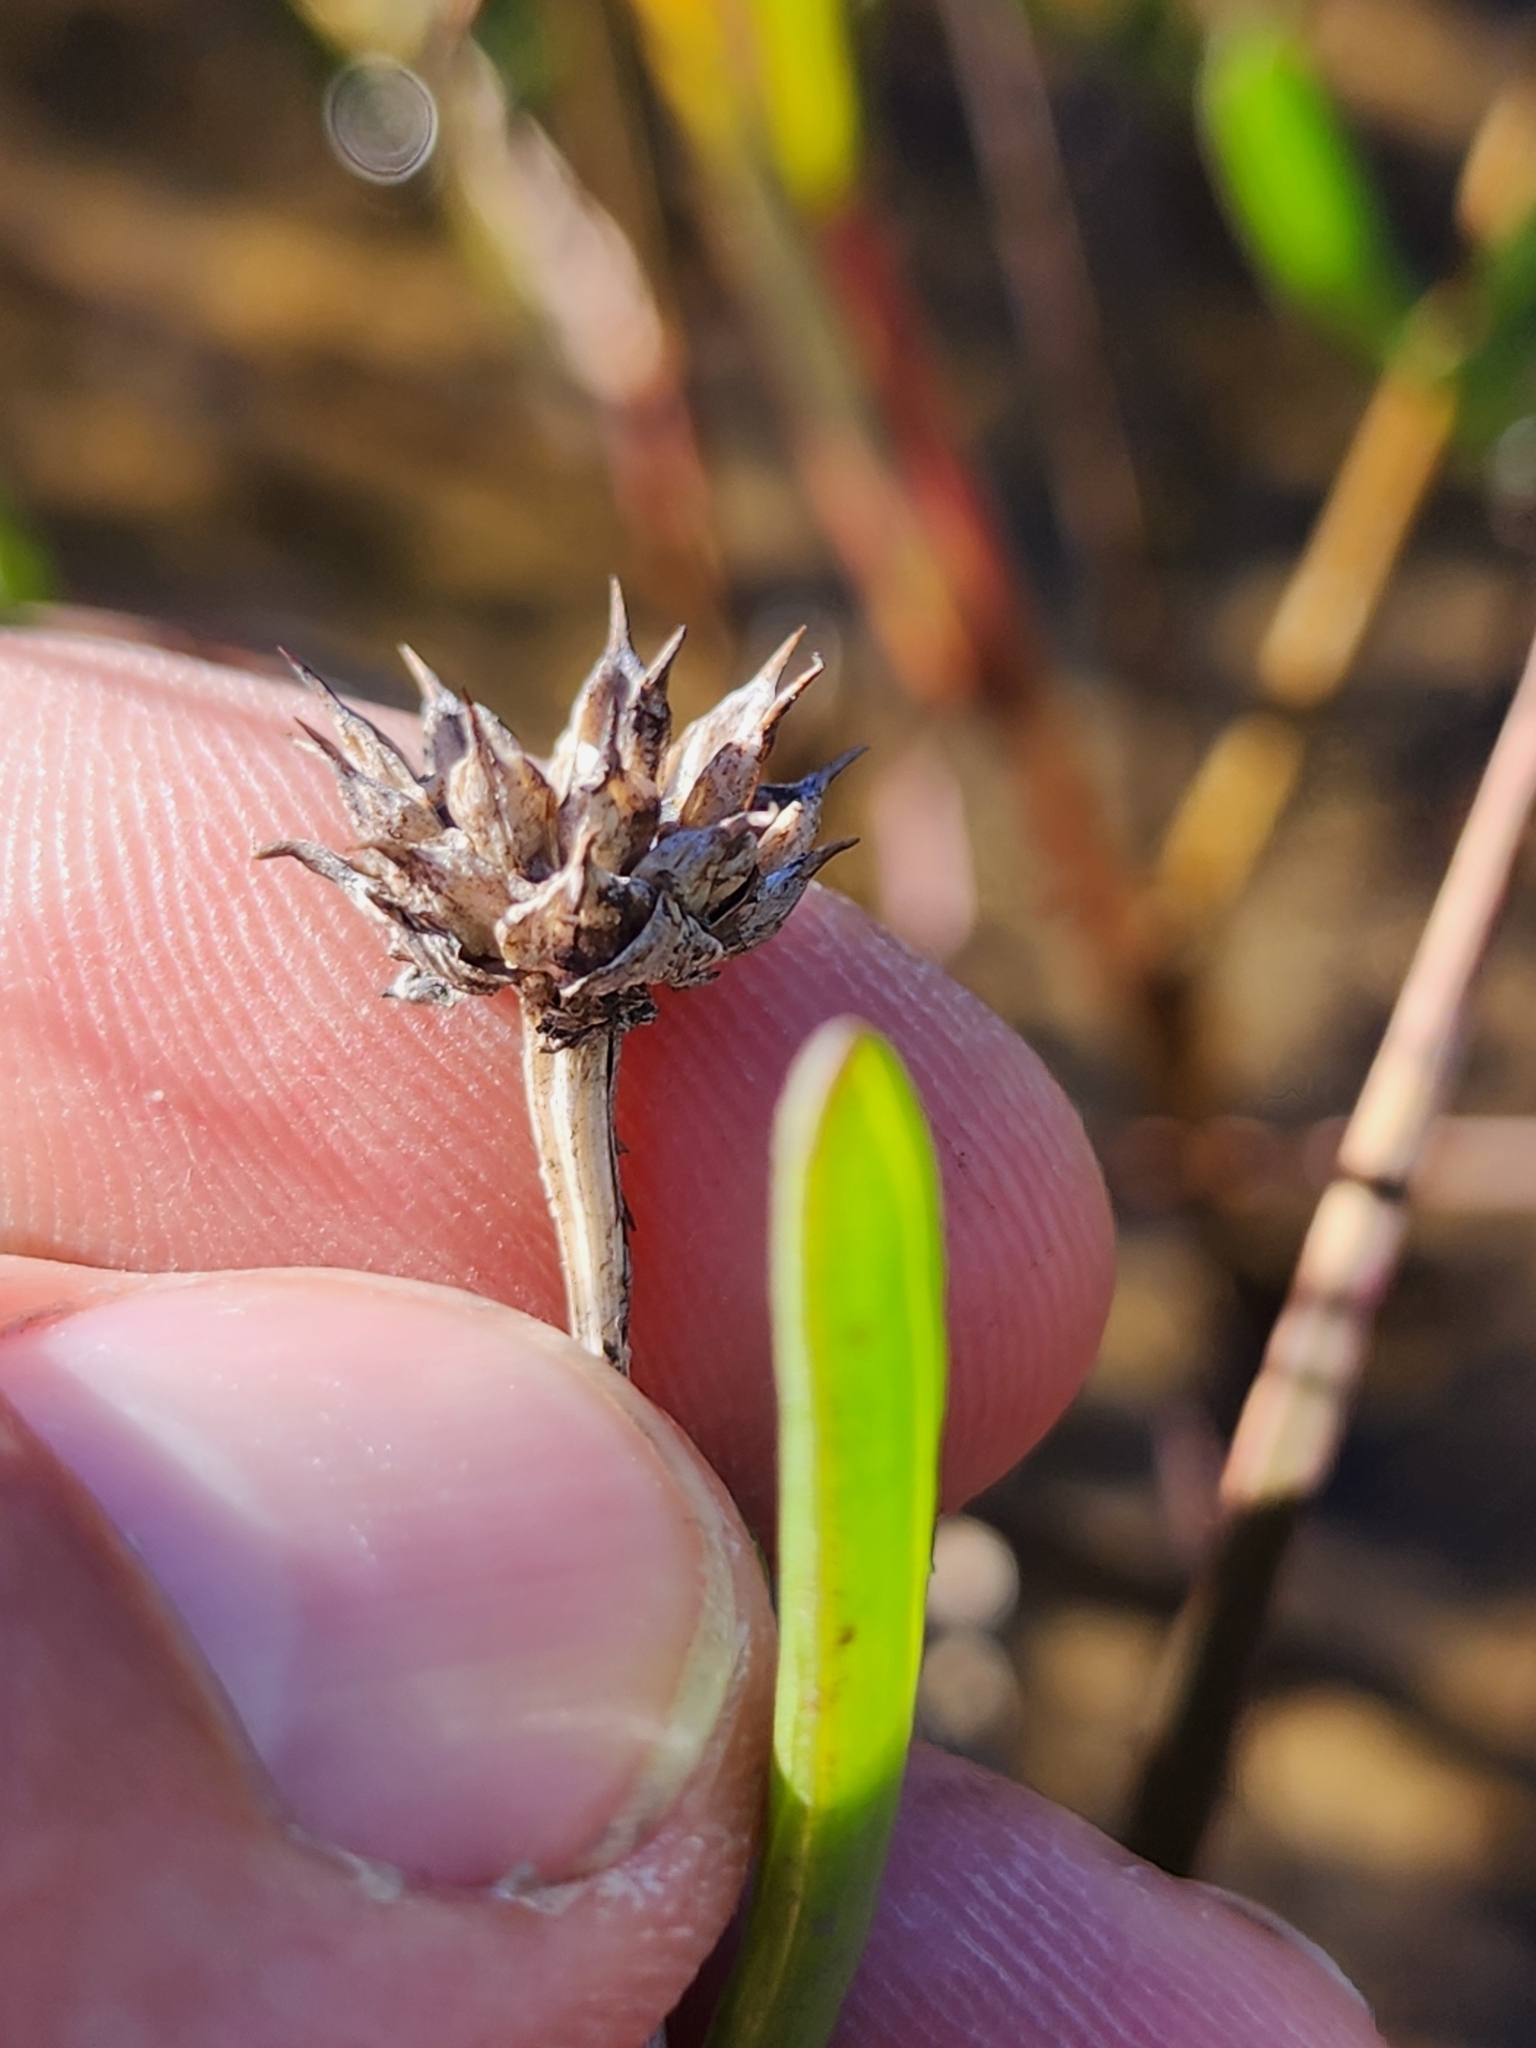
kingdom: Plantae
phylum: Tracheophyta
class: Magnoliopsida
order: Asterales
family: Asteraceae
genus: Borrichia
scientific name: Borrichia frutescens
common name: Sea oxeye
